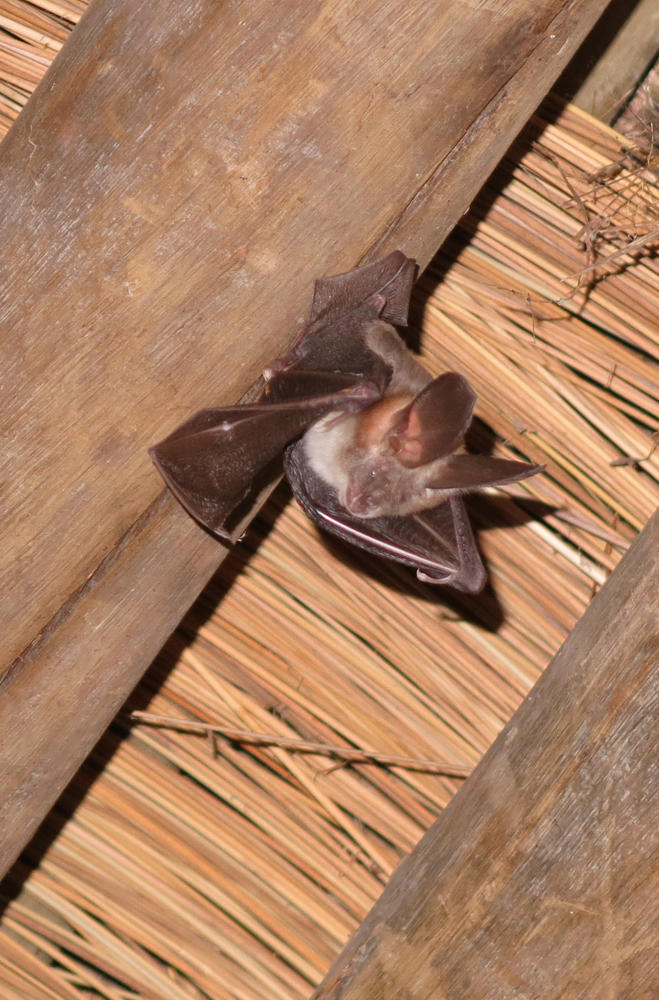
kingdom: Animalia
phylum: Chordata
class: Mammalia
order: Chiroptera
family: Nycteridae
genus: Nycteris
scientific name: Nycteris thebaica
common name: Egyptian slit-faced bat
